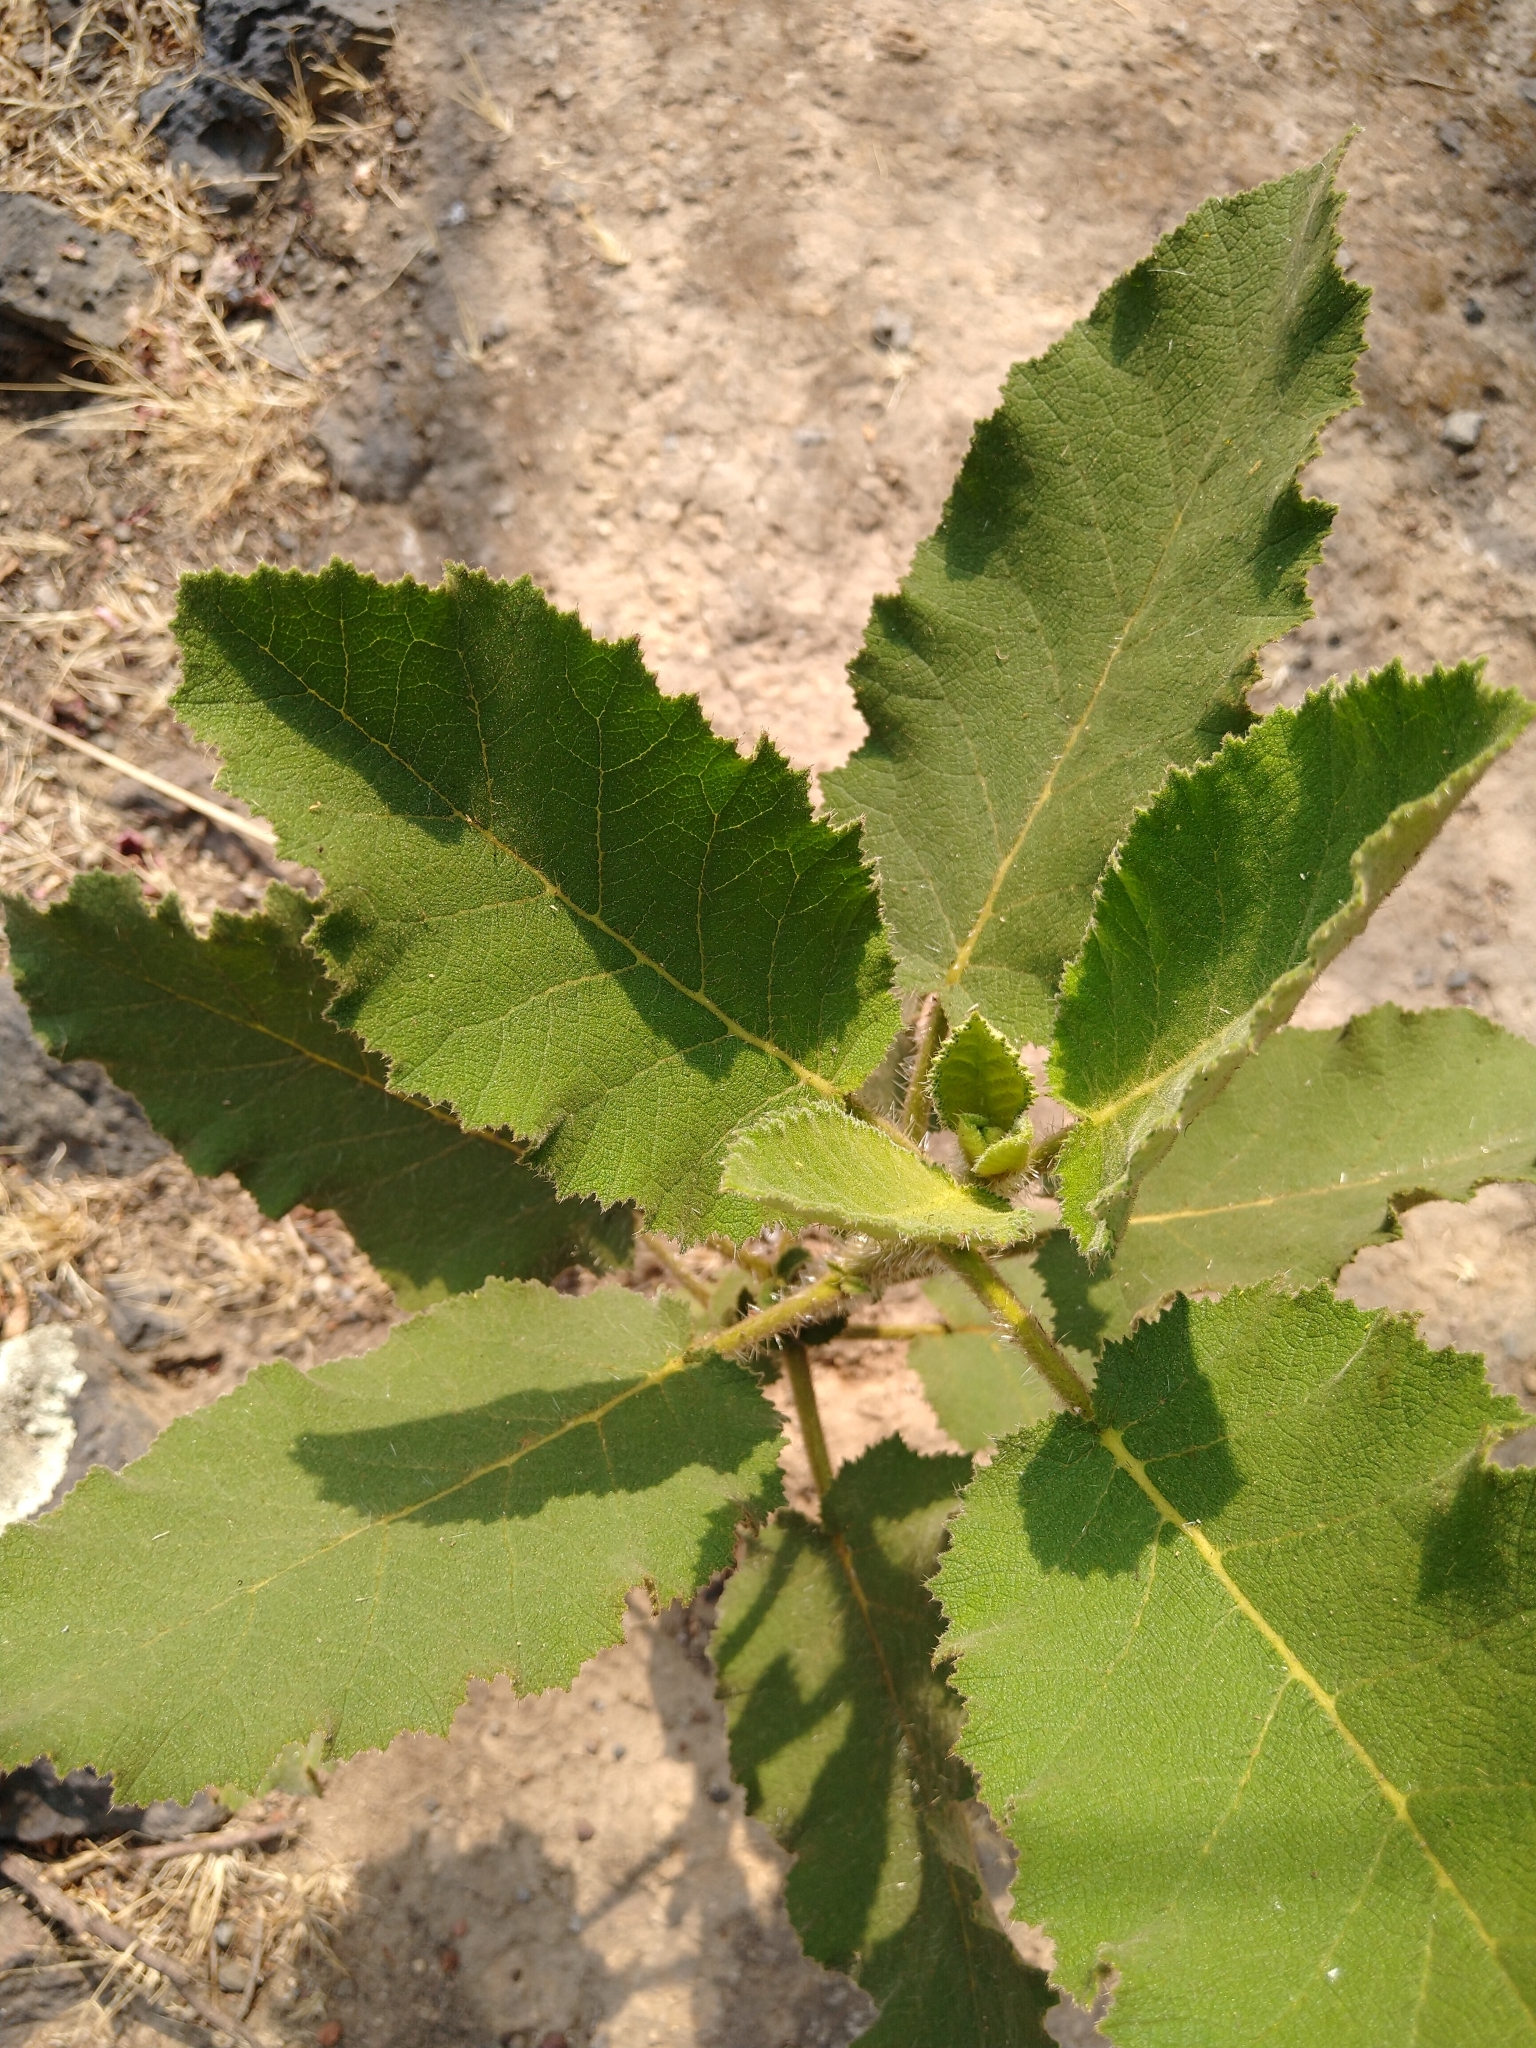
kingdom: Plantae
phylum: Tracheophyta
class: Magnoliopsida
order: Boraginales
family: Namaceae
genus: Wigandia
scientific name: Wigandia urens
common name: Caracus wigandia
